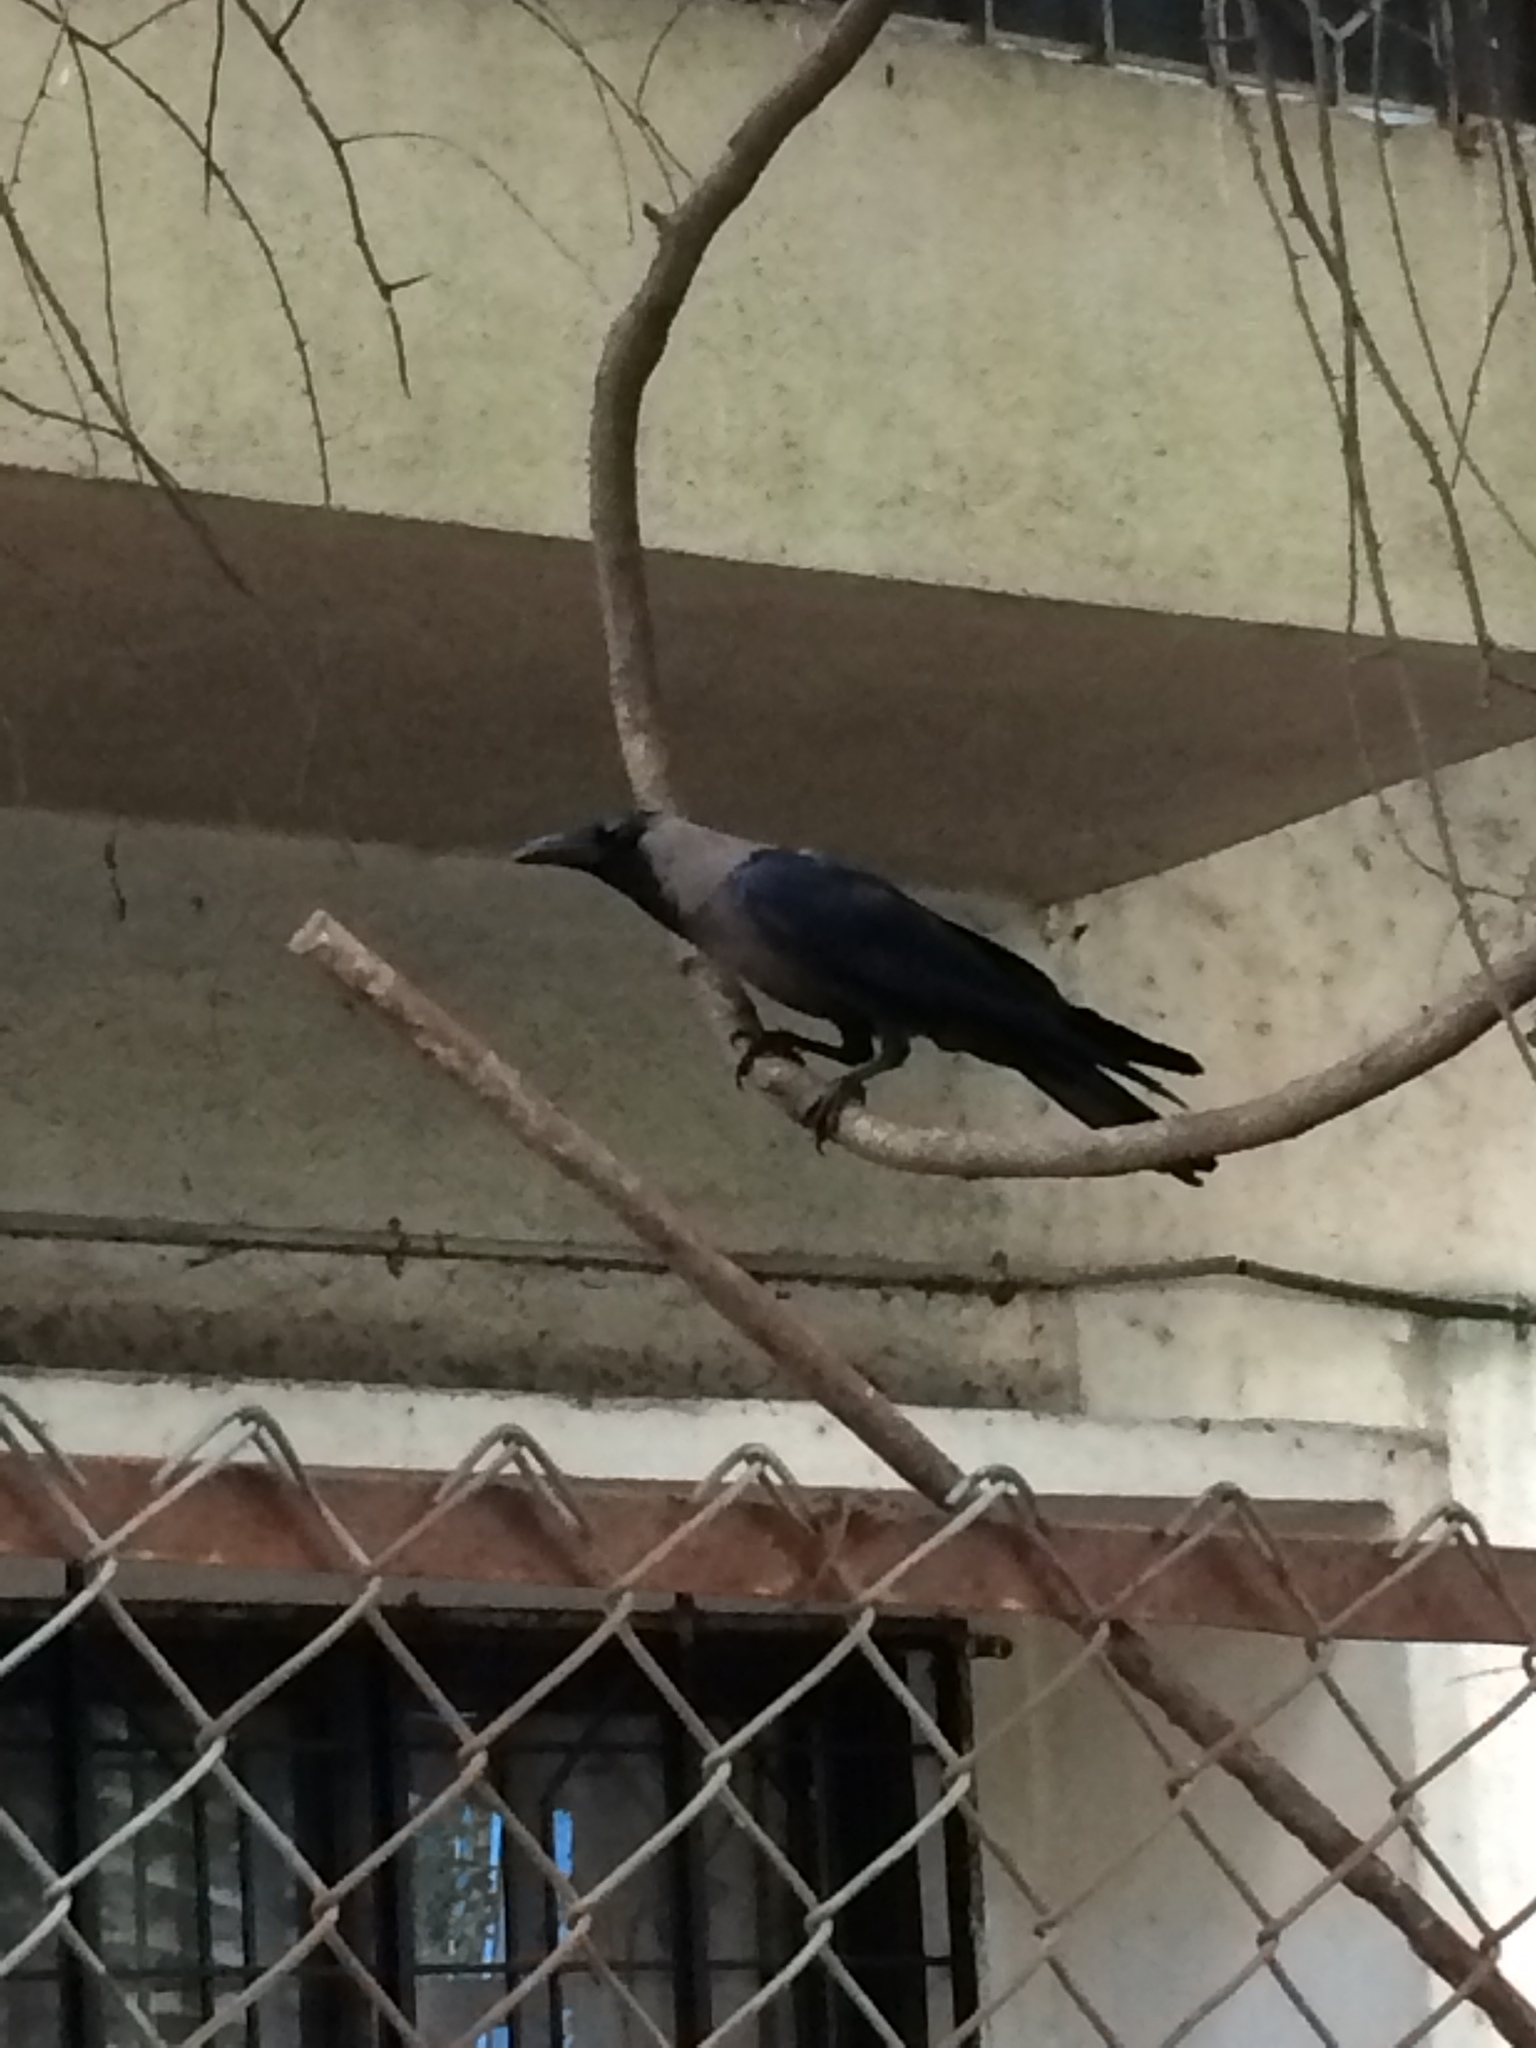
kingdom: Animalia
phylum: Chordata
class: Aves
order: Passeriformes
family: Corvidae
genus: Corvus
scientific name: Corvus splendens
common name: House crow
